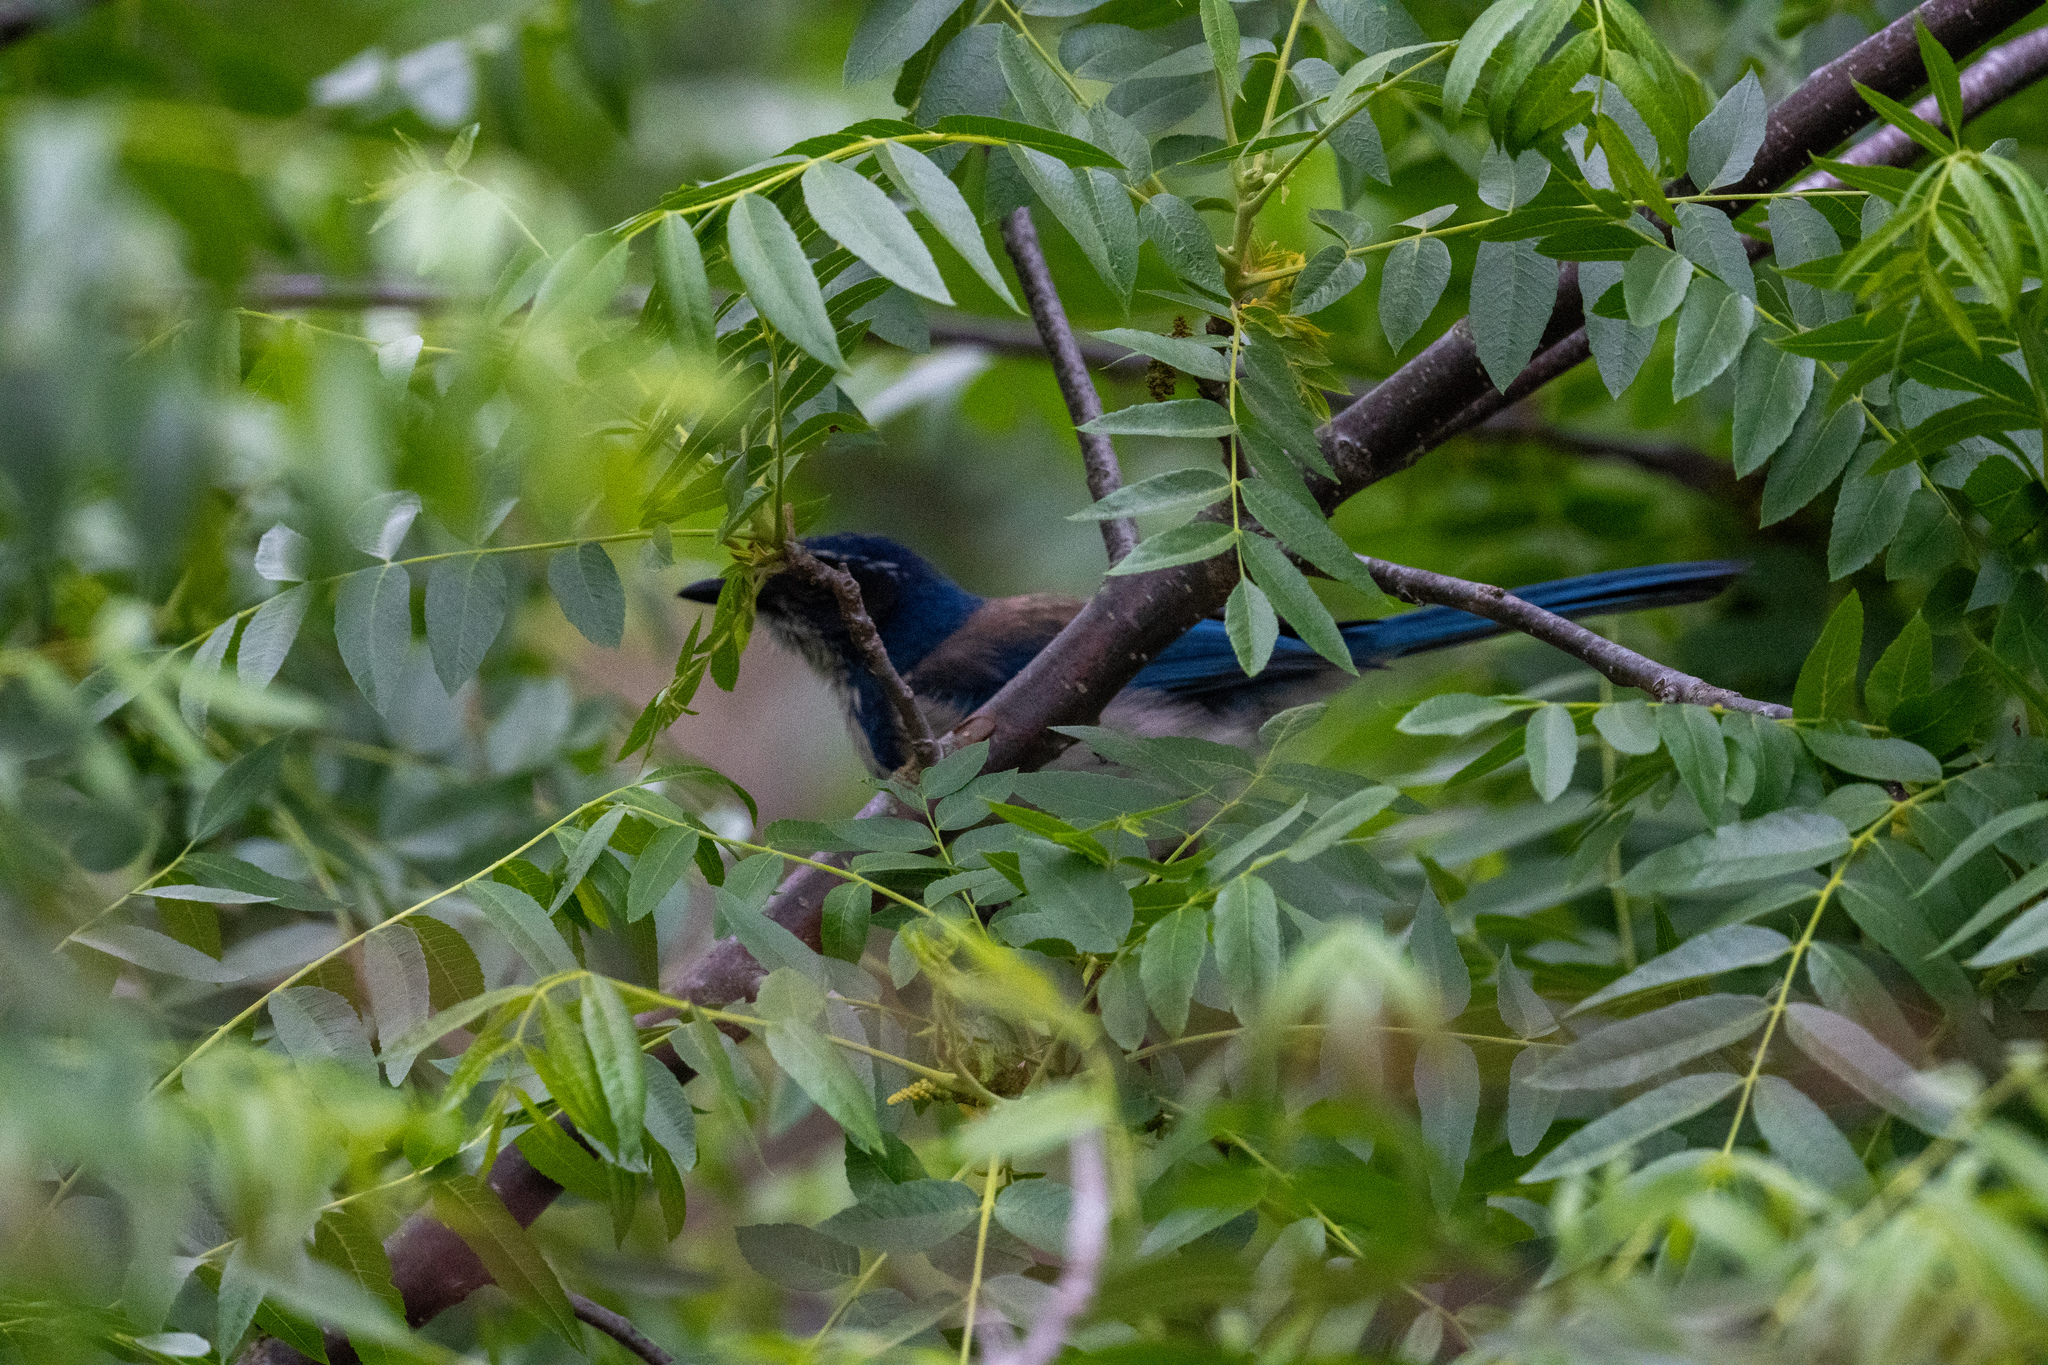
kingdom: Animalia
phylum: Chordata
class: Aves
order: Passeriformes
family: Corvidae
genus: Aphelocoma
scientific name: Aphelocoma californica
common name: California scrub-jay
